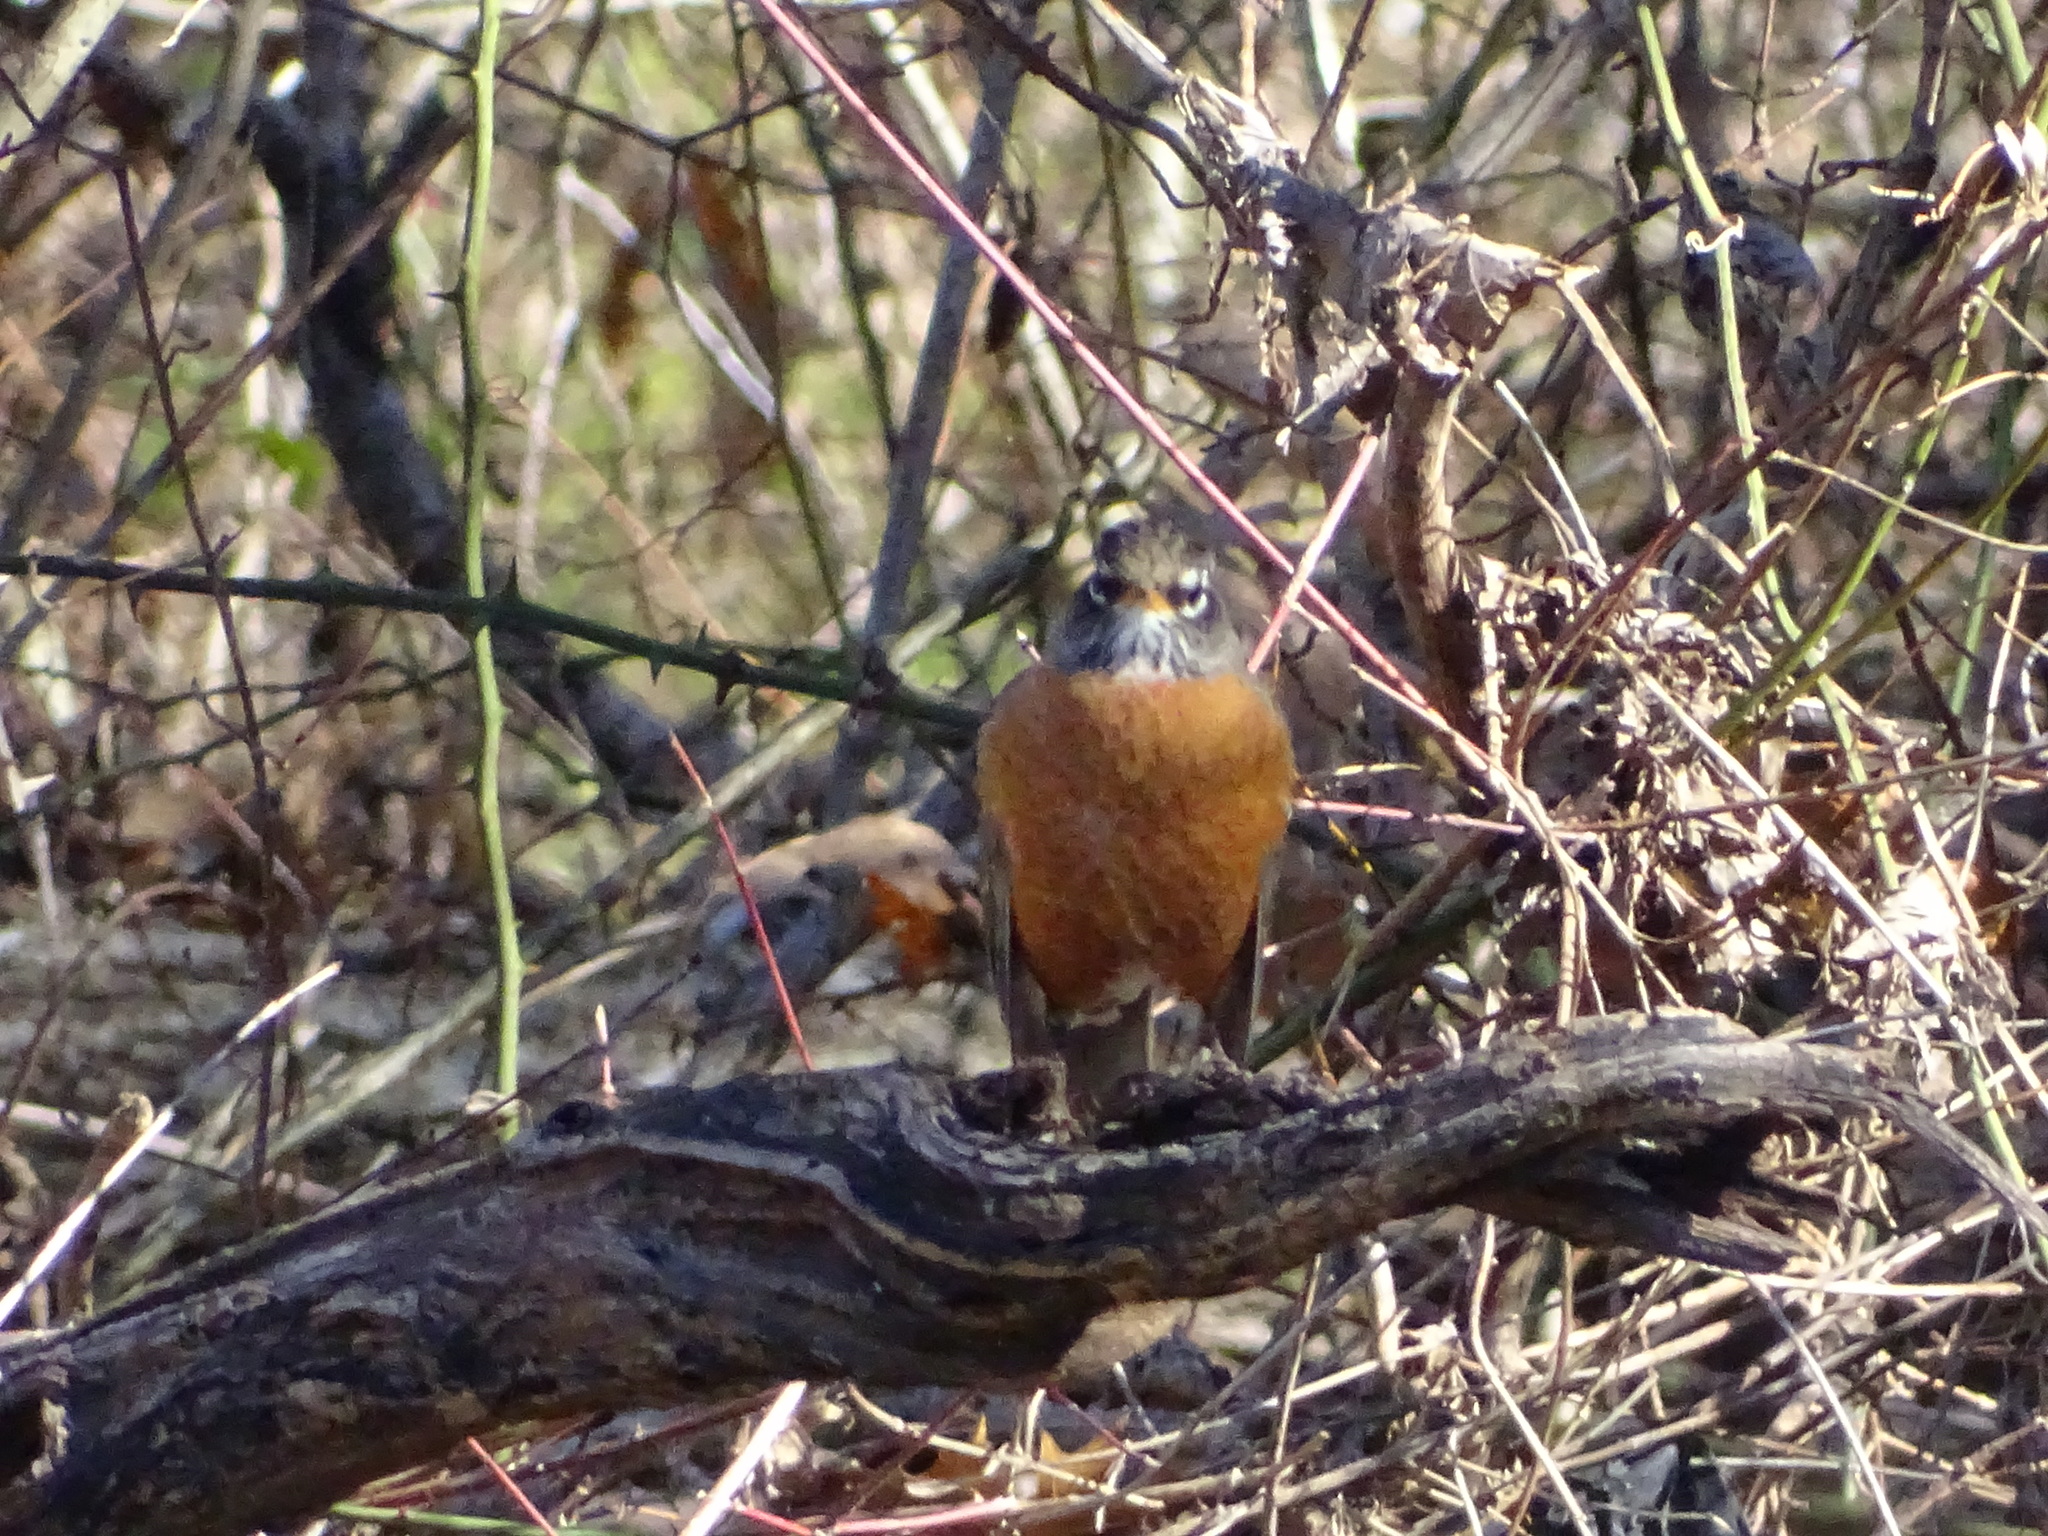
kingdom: Animalia
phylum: Chordata
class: Aves
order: Passeriformes
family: Turdidae
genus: Turdus
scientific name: Turdus migratorius
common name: American robin
